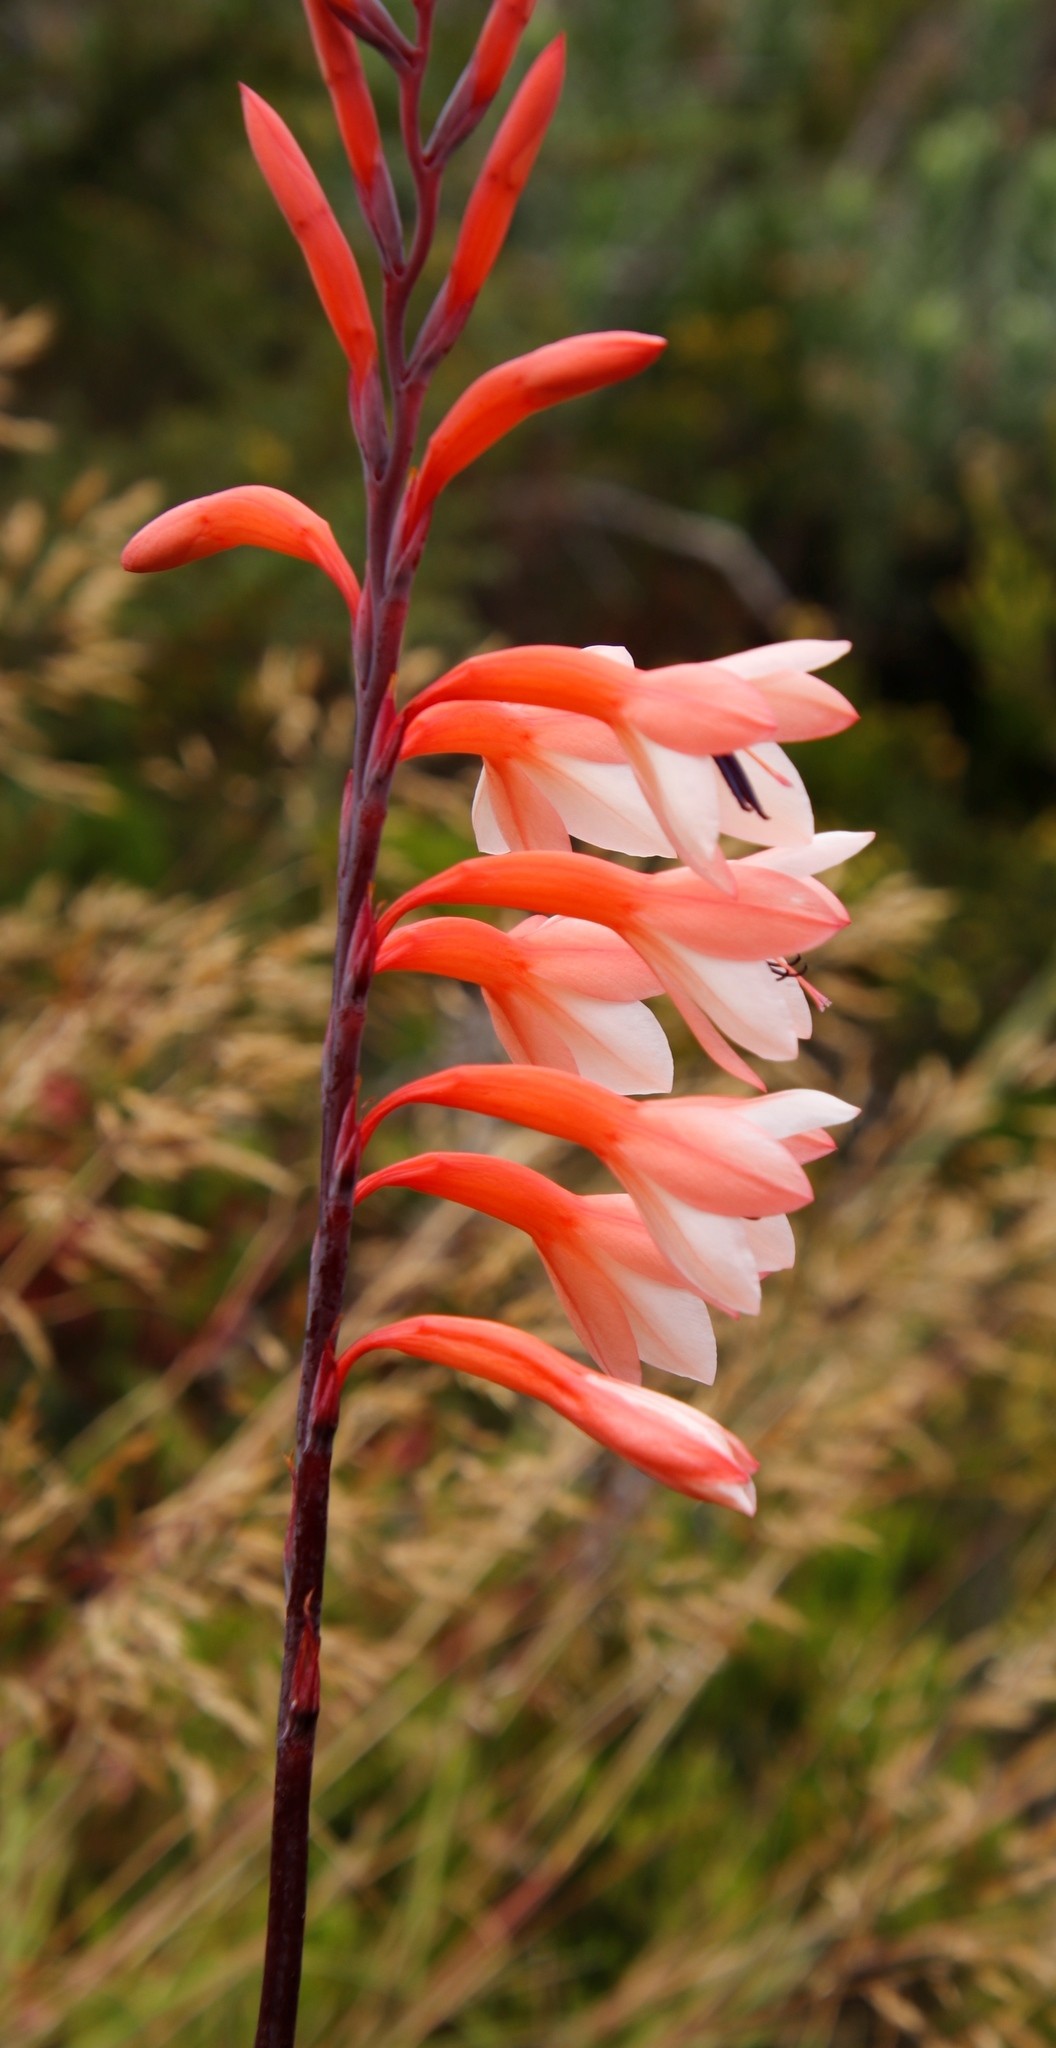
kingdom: Plantae
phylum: Tracheophyta
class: Liliopsida
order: Asparagales
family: Iridaceae
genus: Watsonia
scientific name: Watsonia tabularis
